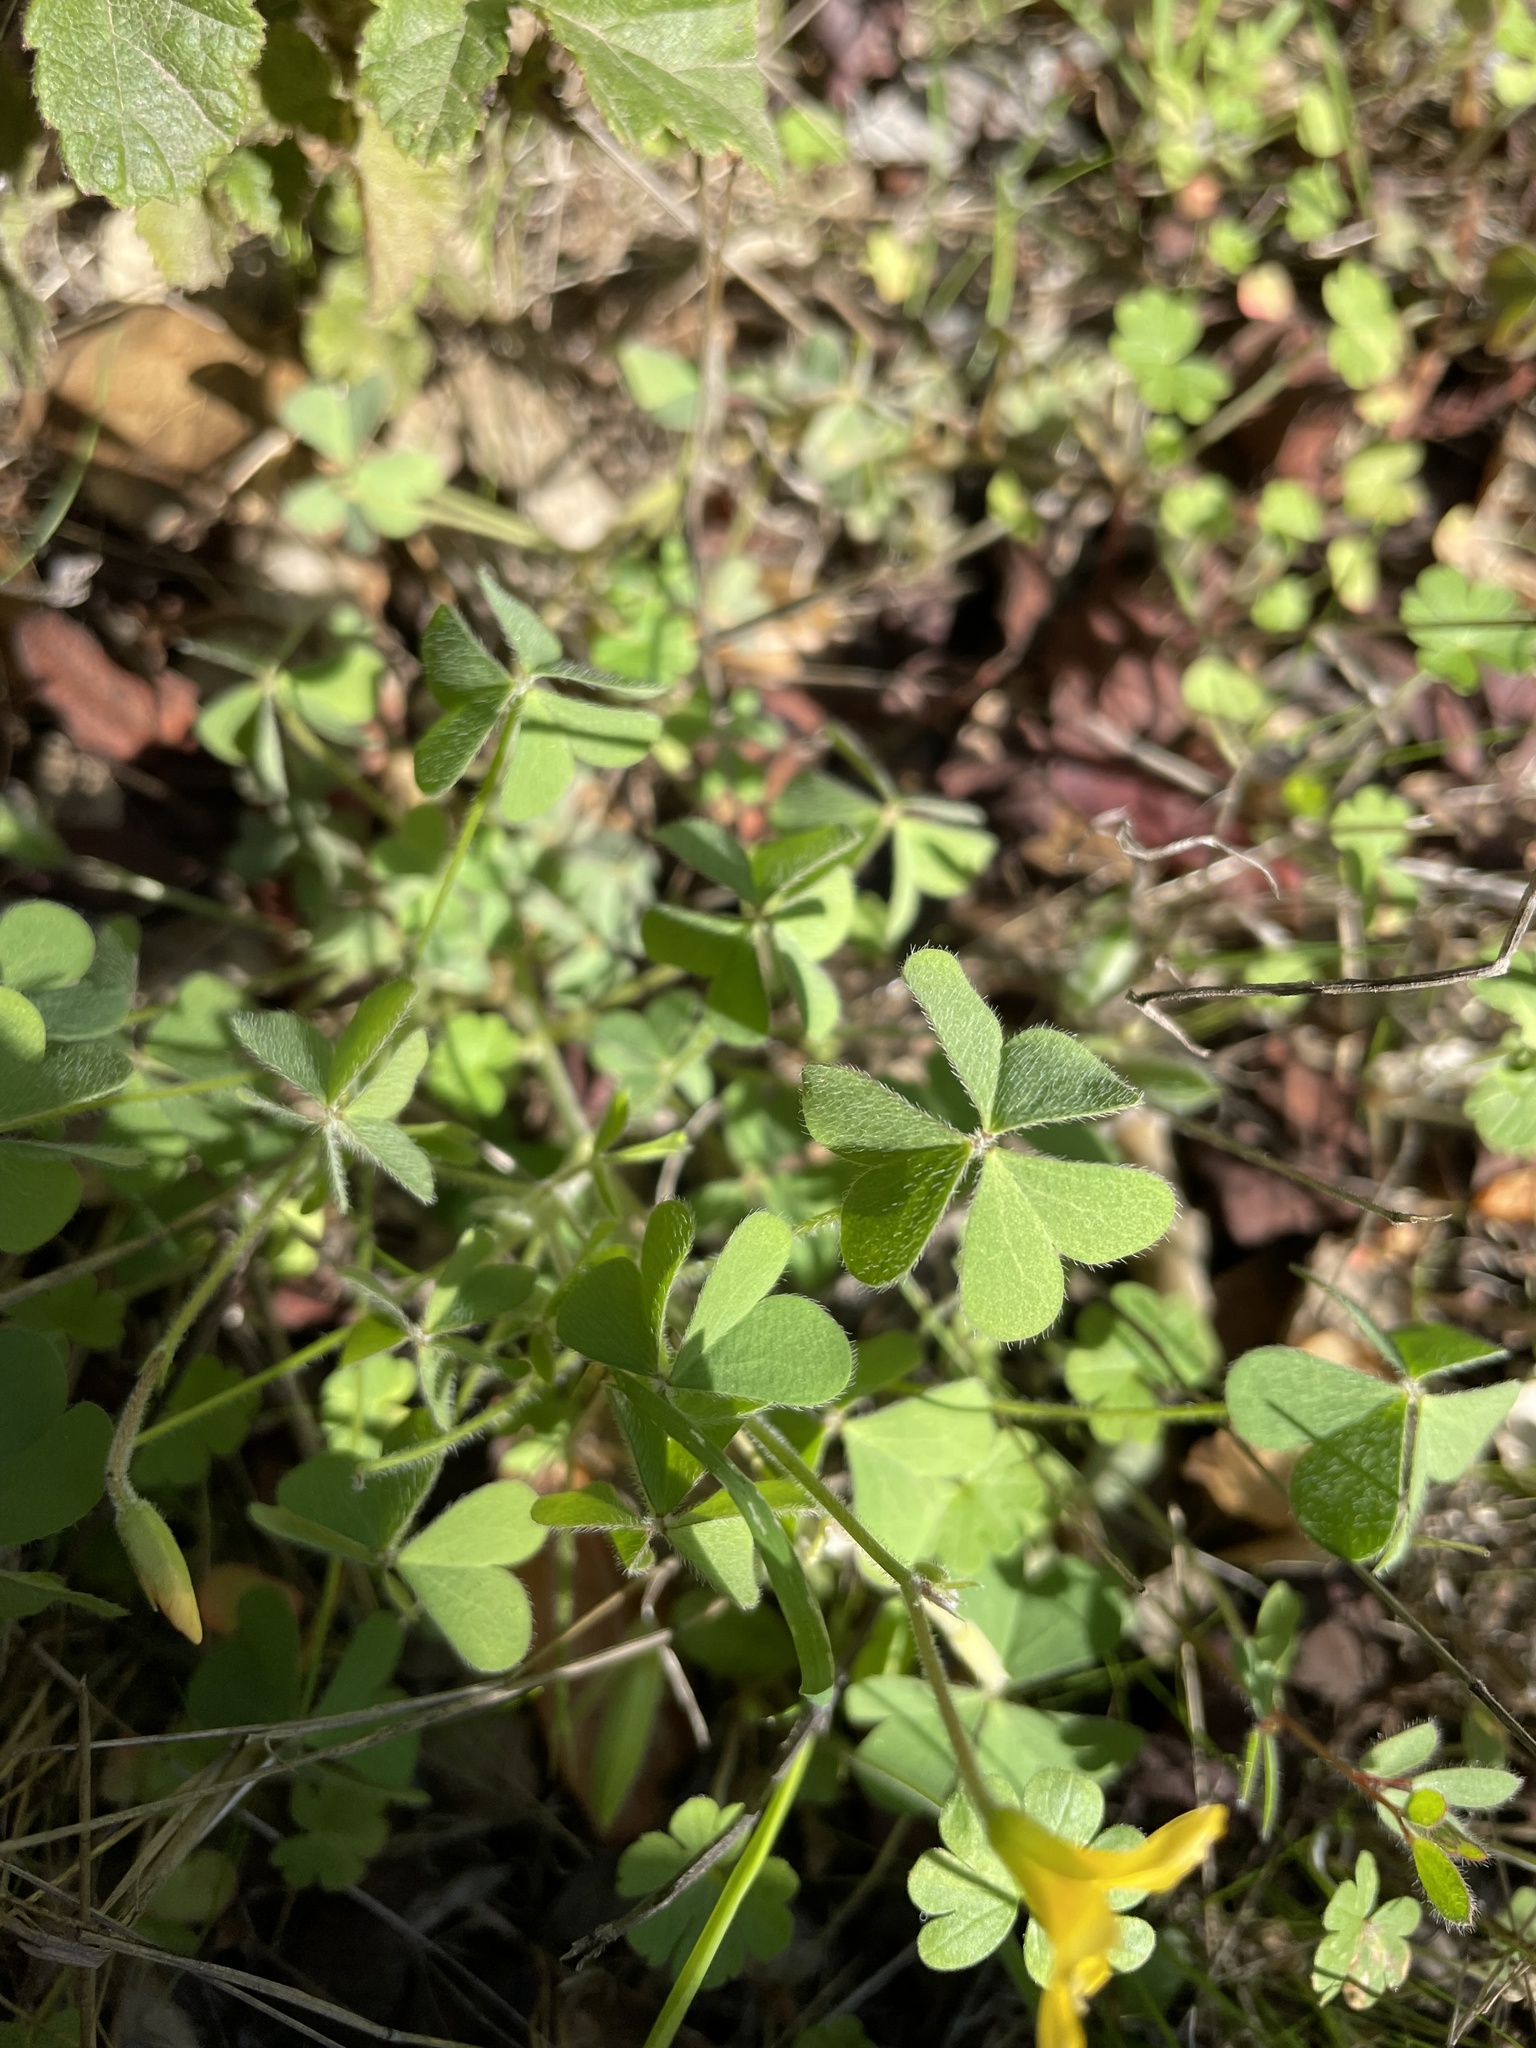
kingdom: Plantae
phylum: Tracheophyta
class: Magnoliopsida
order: Oxalidales
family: Oxalidaceae
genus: Oxalis
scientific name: Oxalis pilosa
